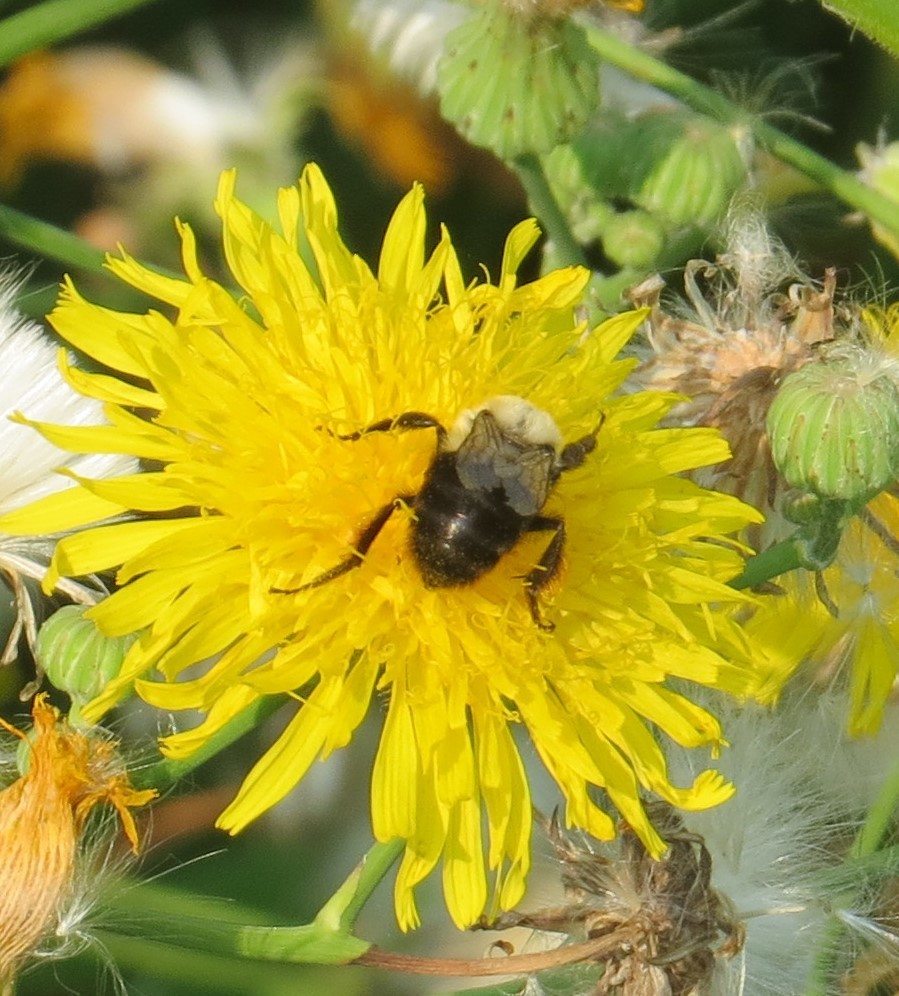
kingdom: Animalia
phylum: Arthropoda
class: Insecta
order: Hymenoptera
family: Apidae
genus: Bombus
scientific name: Bombus impatiens
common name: Common eastern bumble bee
